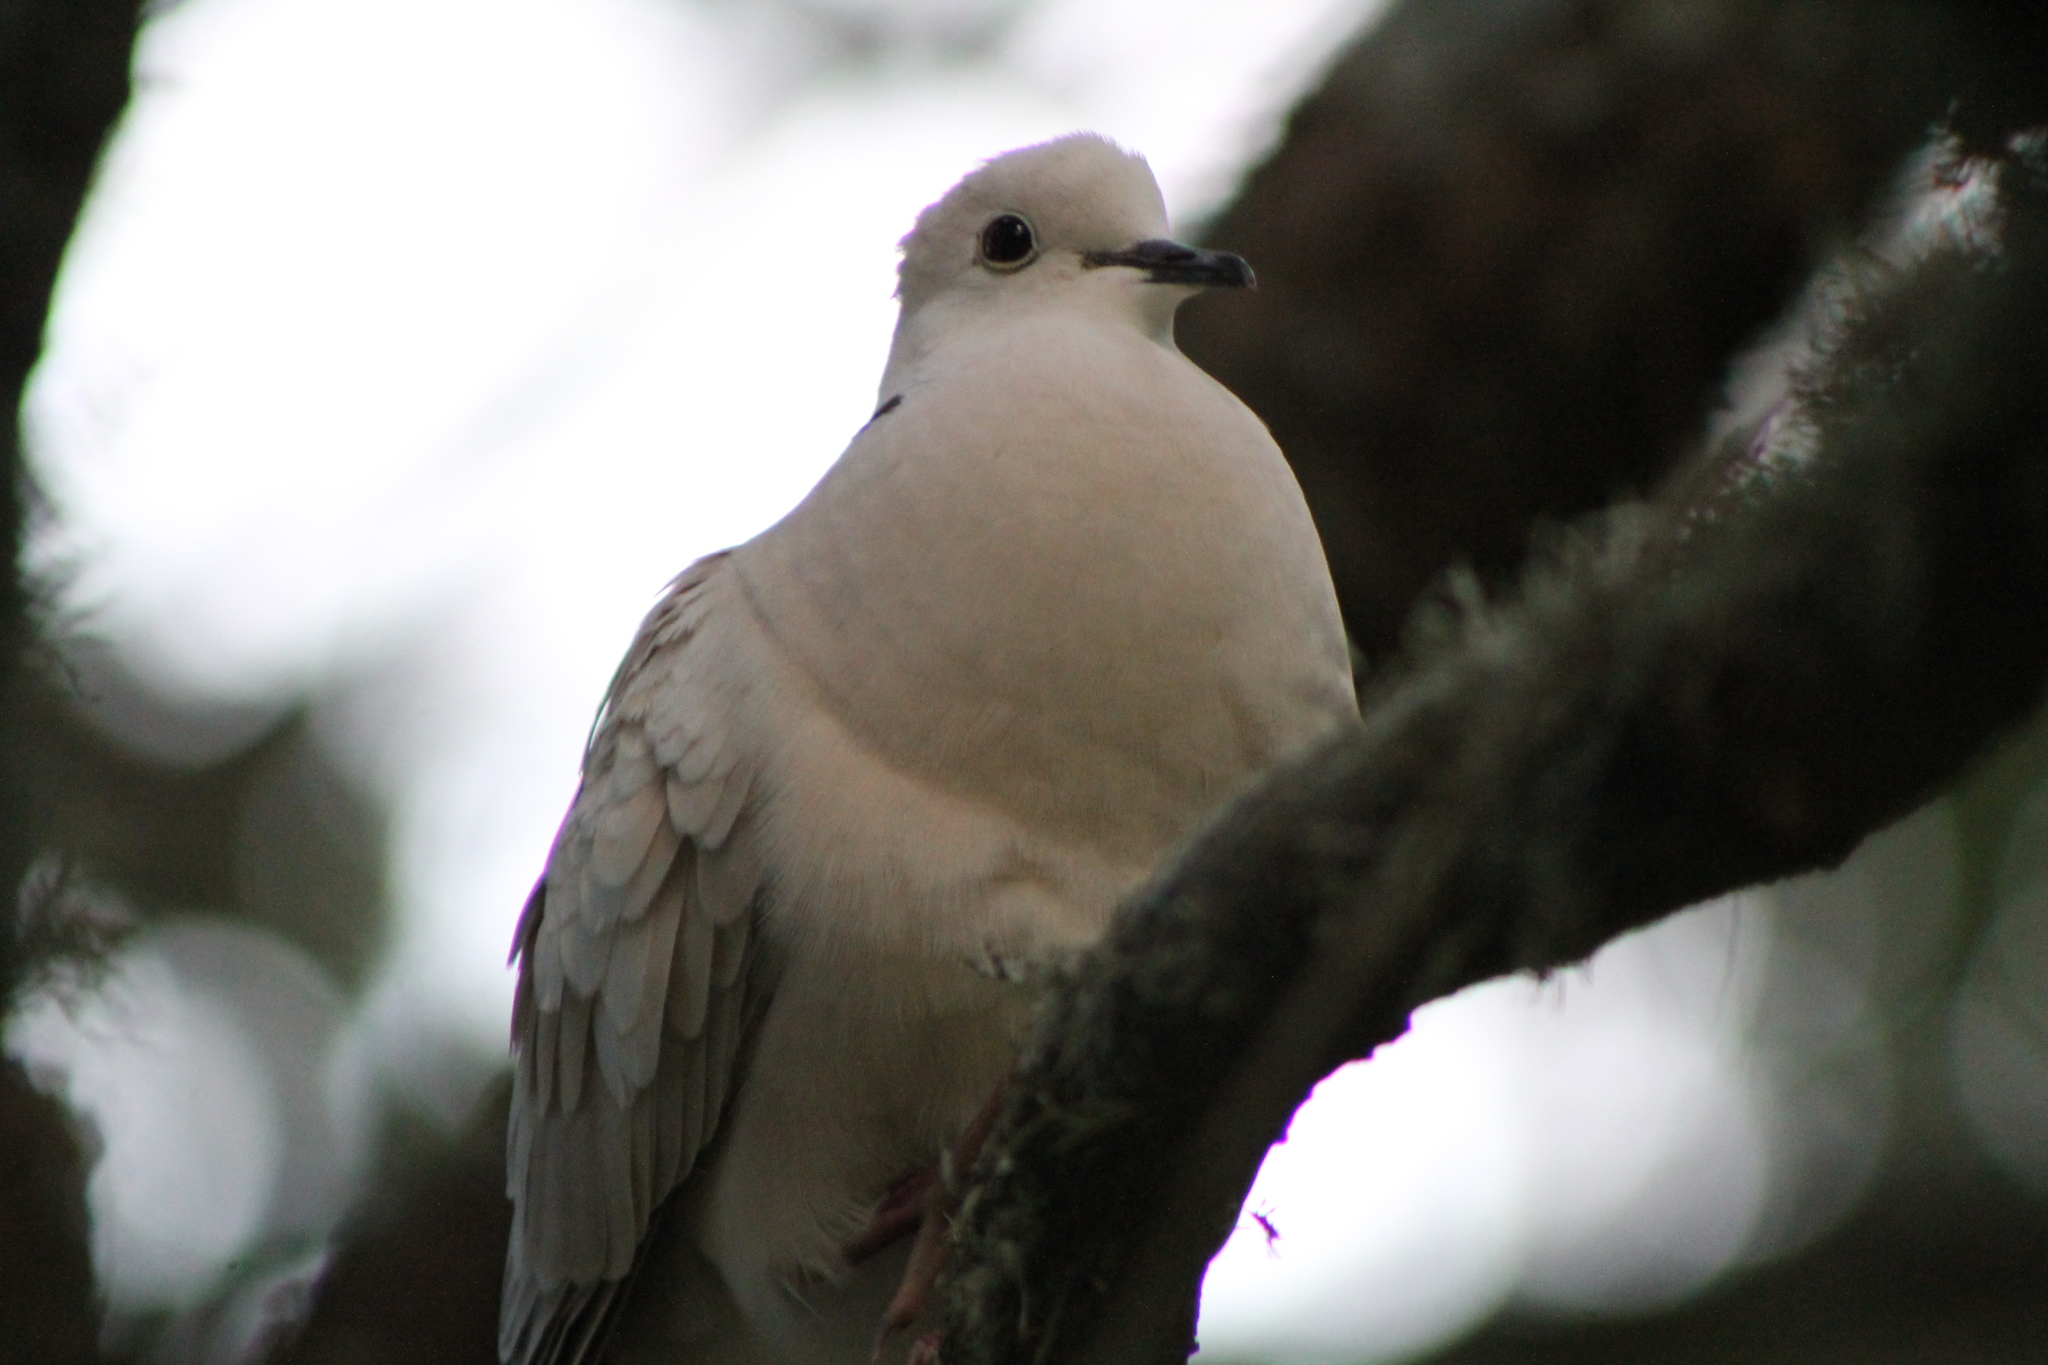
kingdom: Animalia
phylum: Chordata
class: Aves
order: Columbiformes
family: Columbidae
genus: Streptopelia
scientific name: Streptopelia roseogrisea
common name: African collared dove
